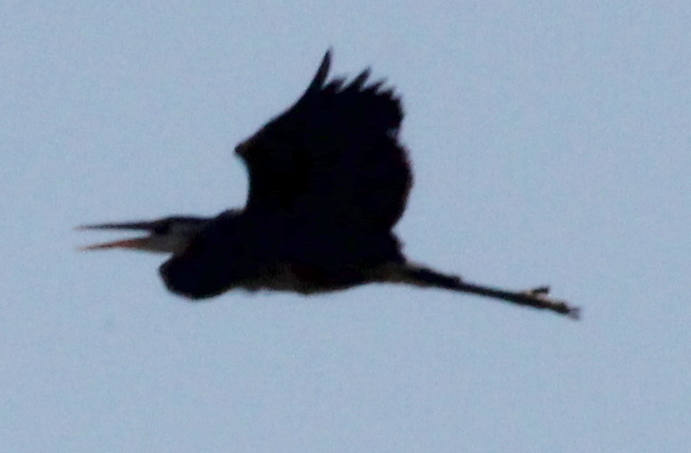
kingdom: Animalia
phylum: Chordata
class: Aves
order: Pelecaniformes
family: Ardeidae
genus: Ardea
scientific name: Ardea herodias
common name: Great blue heron
